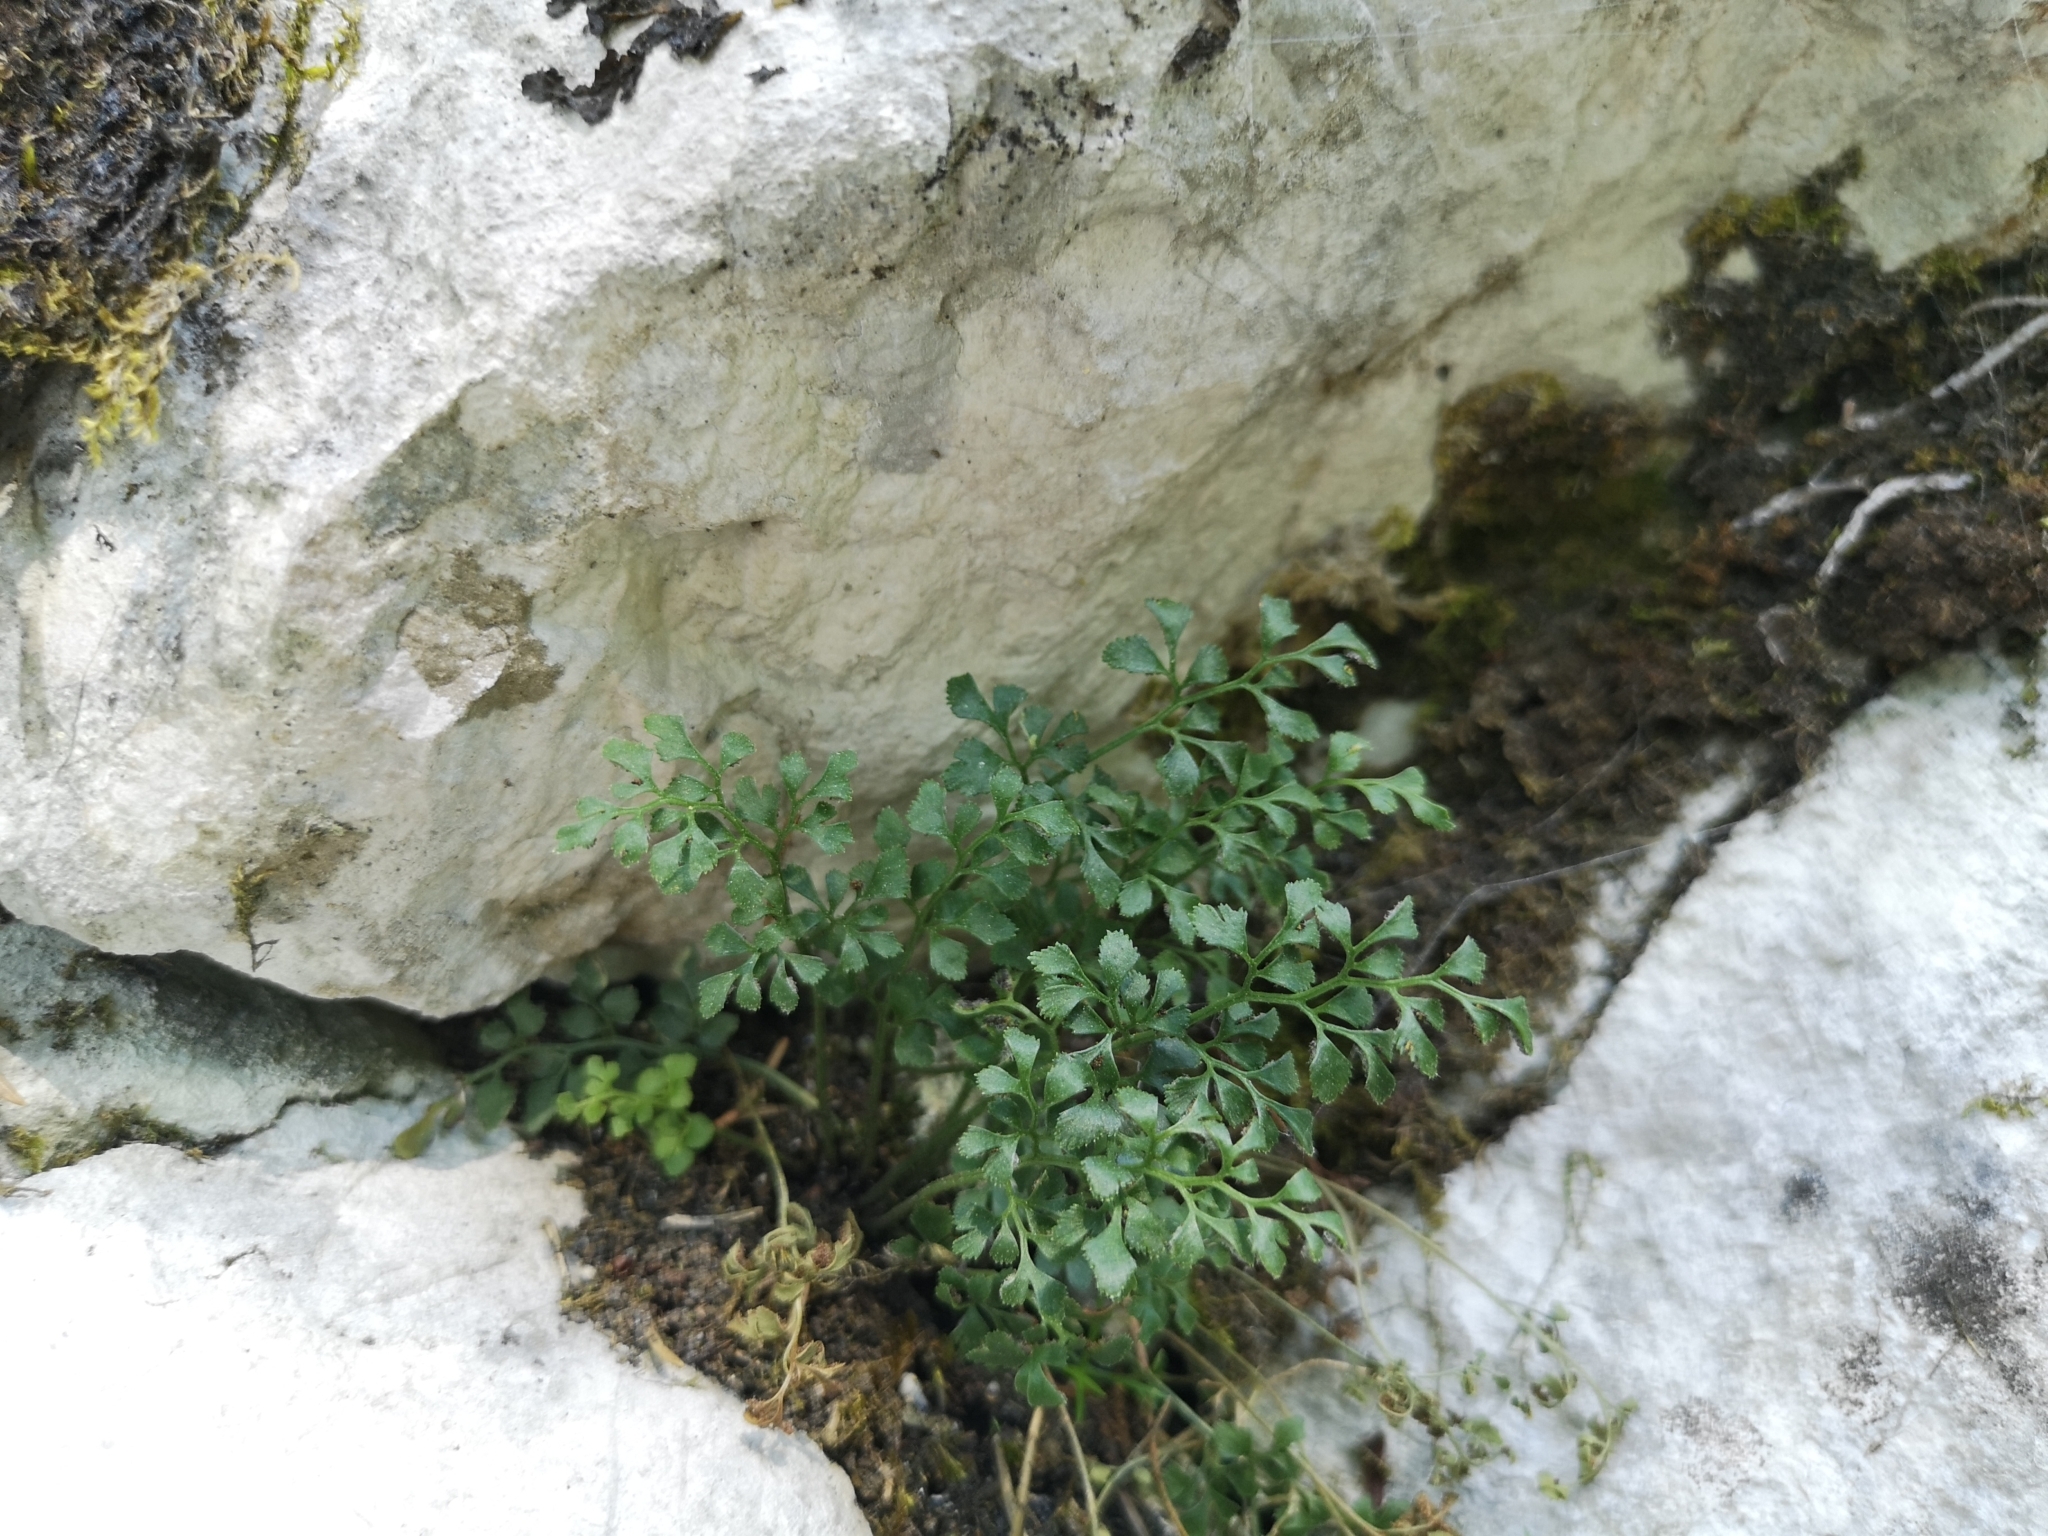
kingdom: Plantae
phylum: Tracheophyta
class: Polypodiopsida
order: Polypodiales
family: Aspleniaceae
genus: Asplenium
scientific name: Asplenium ruta-muraria
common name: Wall-rue
